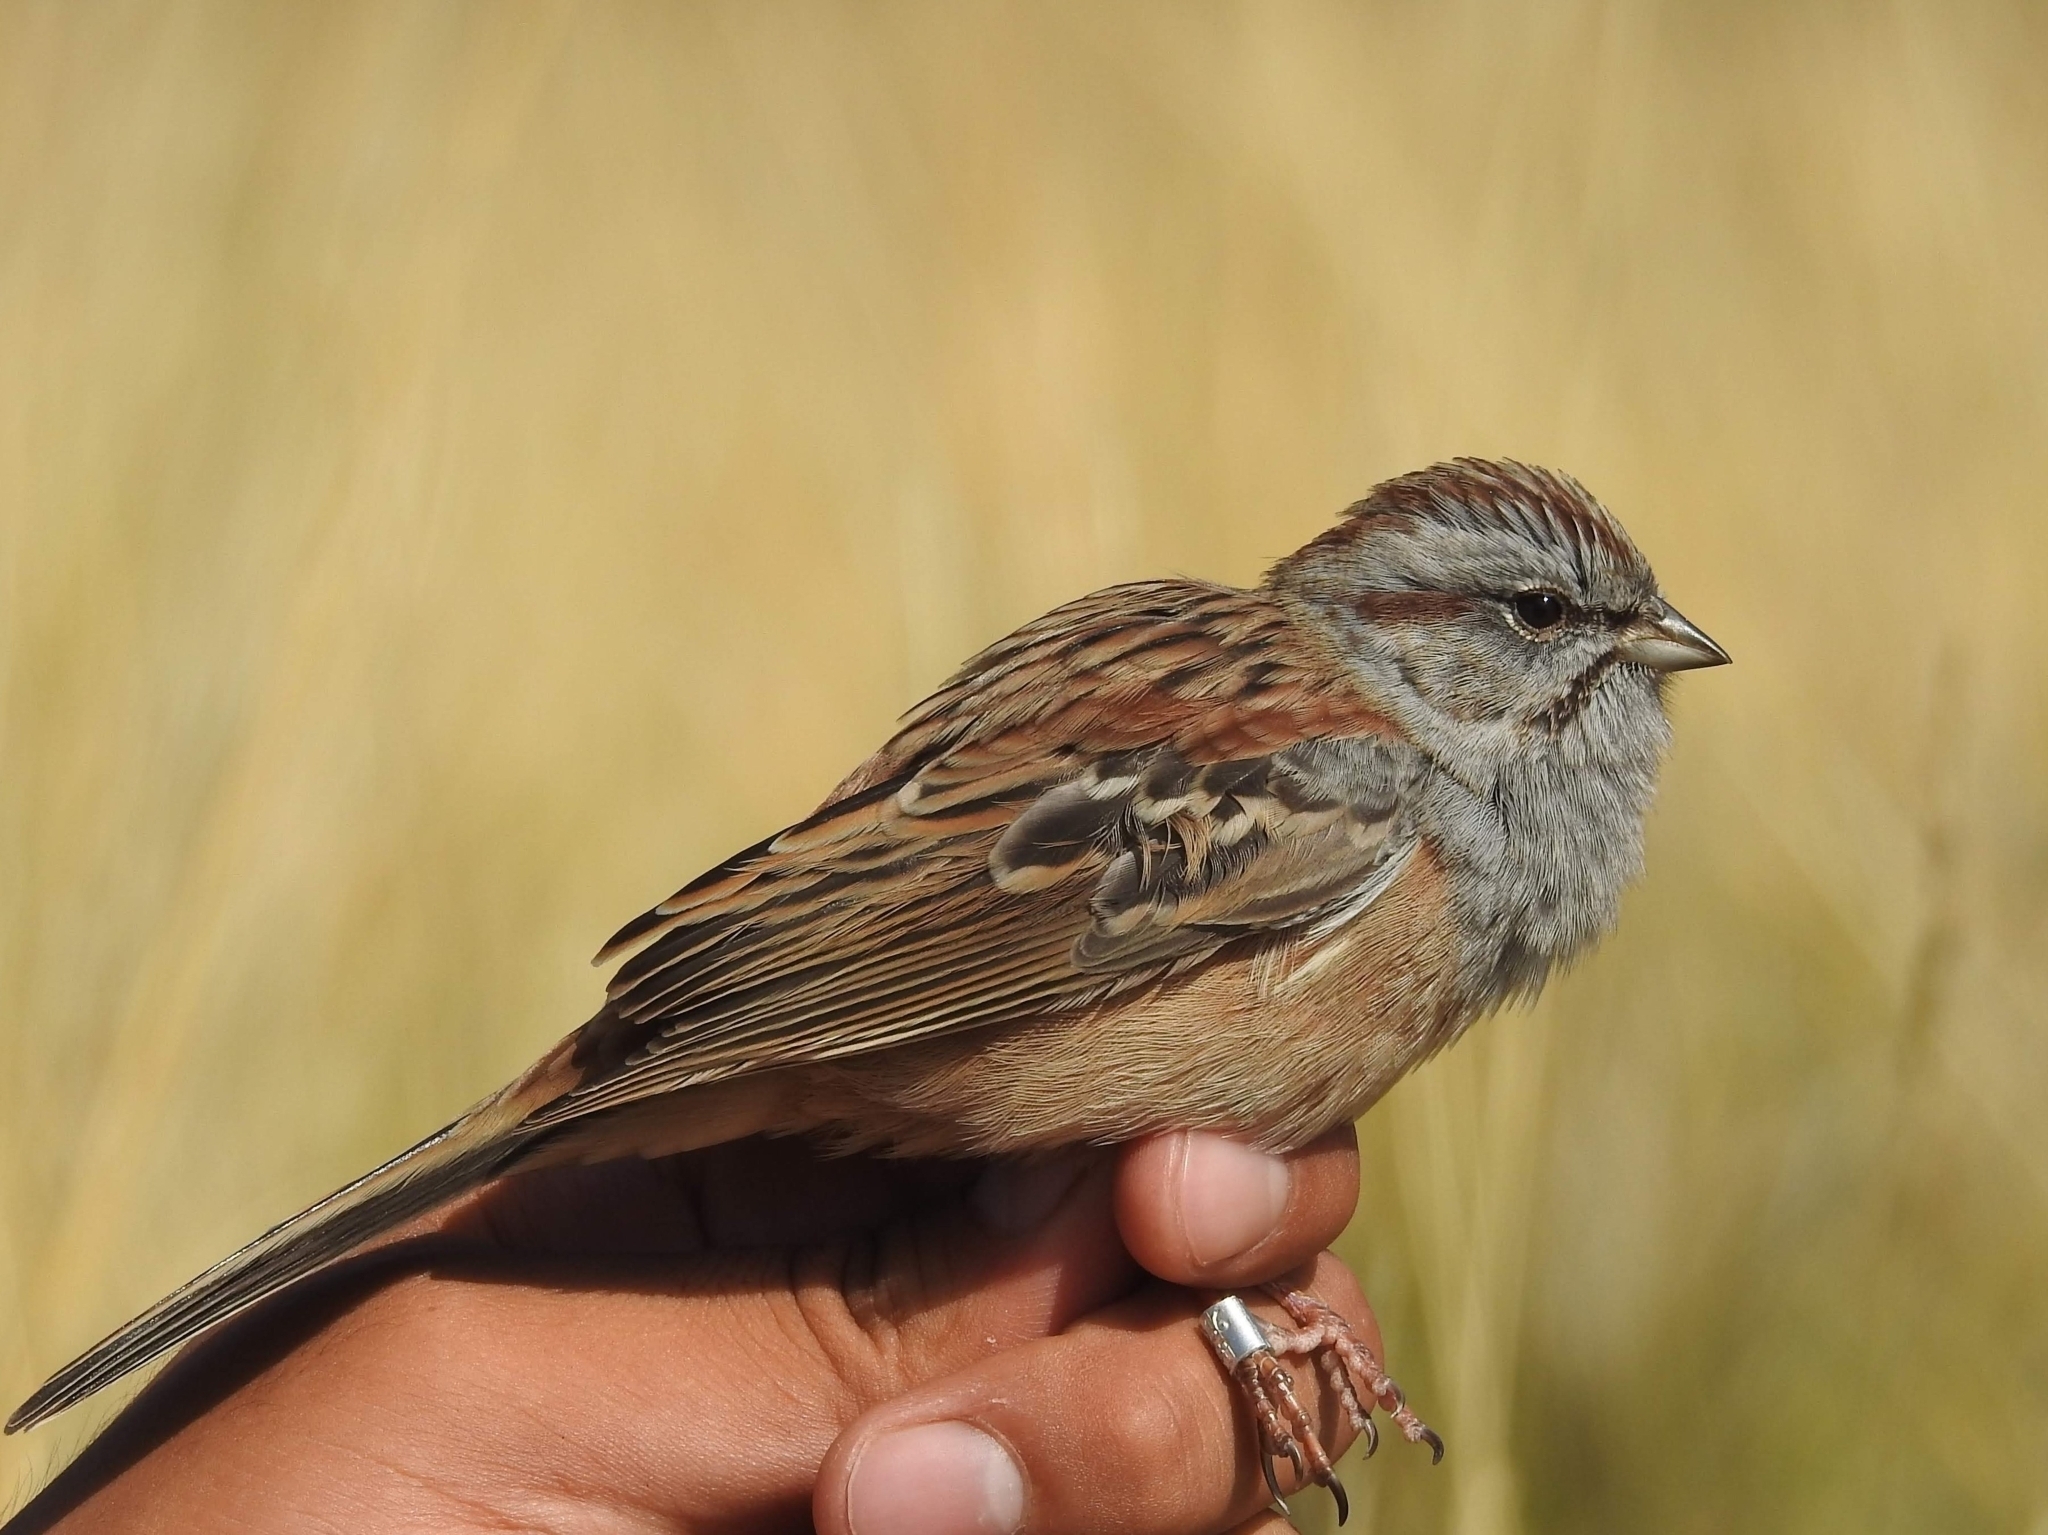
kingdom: Animalia
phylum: Chordata
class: Aves
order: Passeriformes
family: Emberizidae
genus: Emberiza
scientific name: Emberiza godlewskii
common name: Godlewski's bunting
